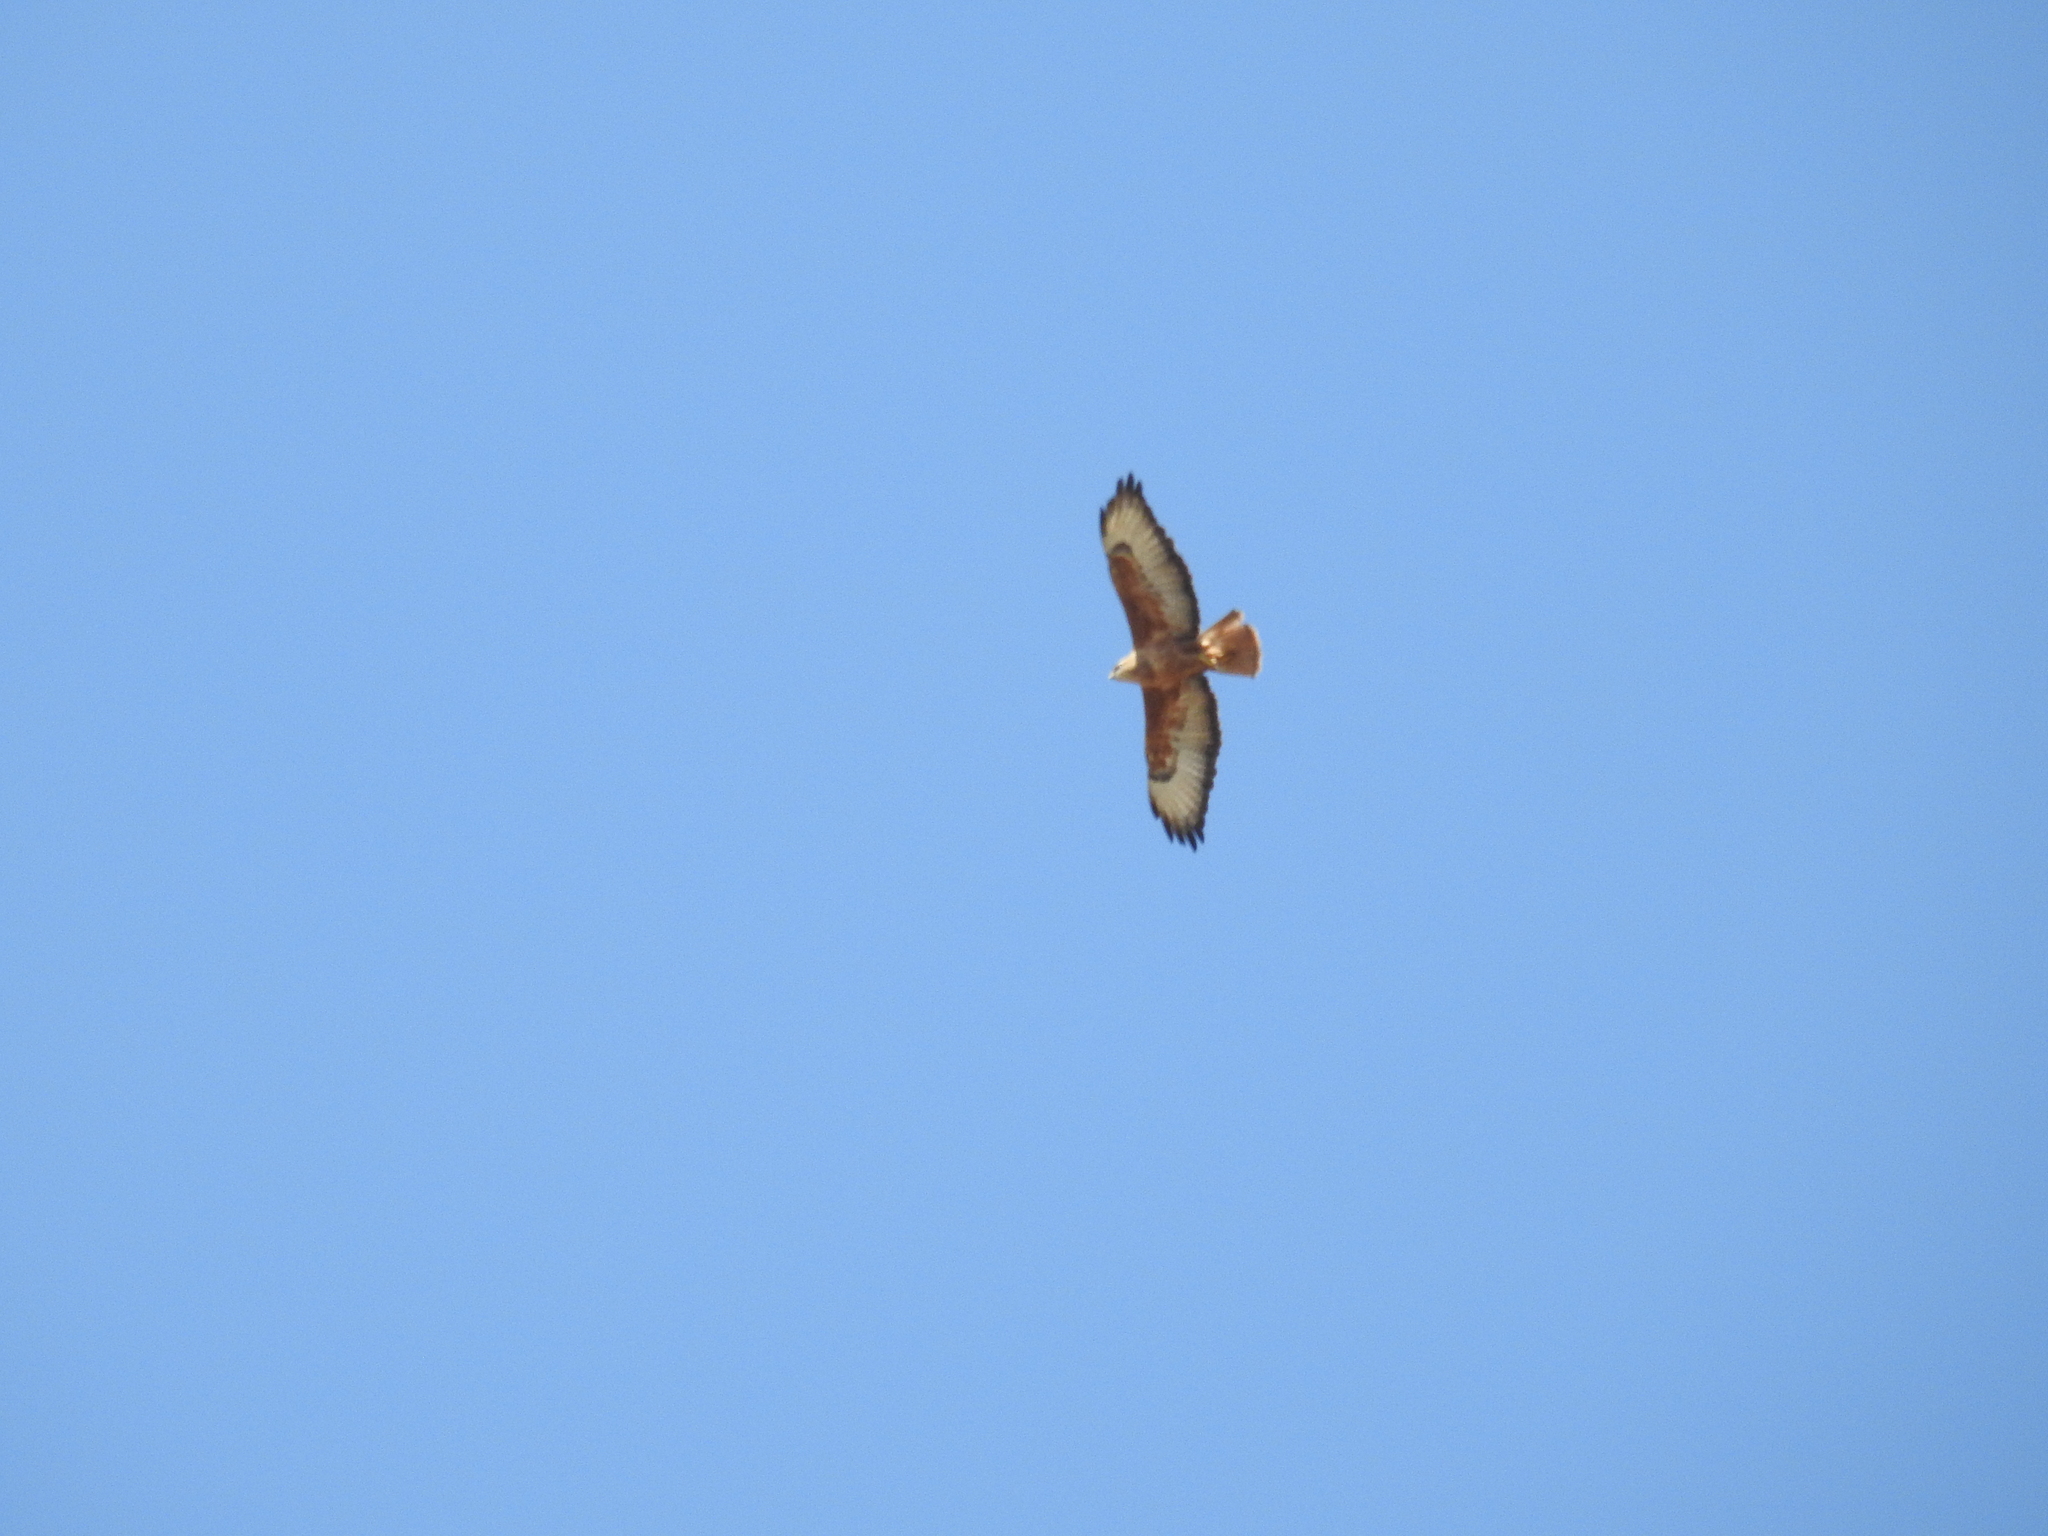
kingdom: Animalia
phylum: Chordata
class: Aves
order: Accipitriformes
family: Accipitridae
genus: Buteo
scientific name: Buteo rufinus
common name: Long-legged buzzard
